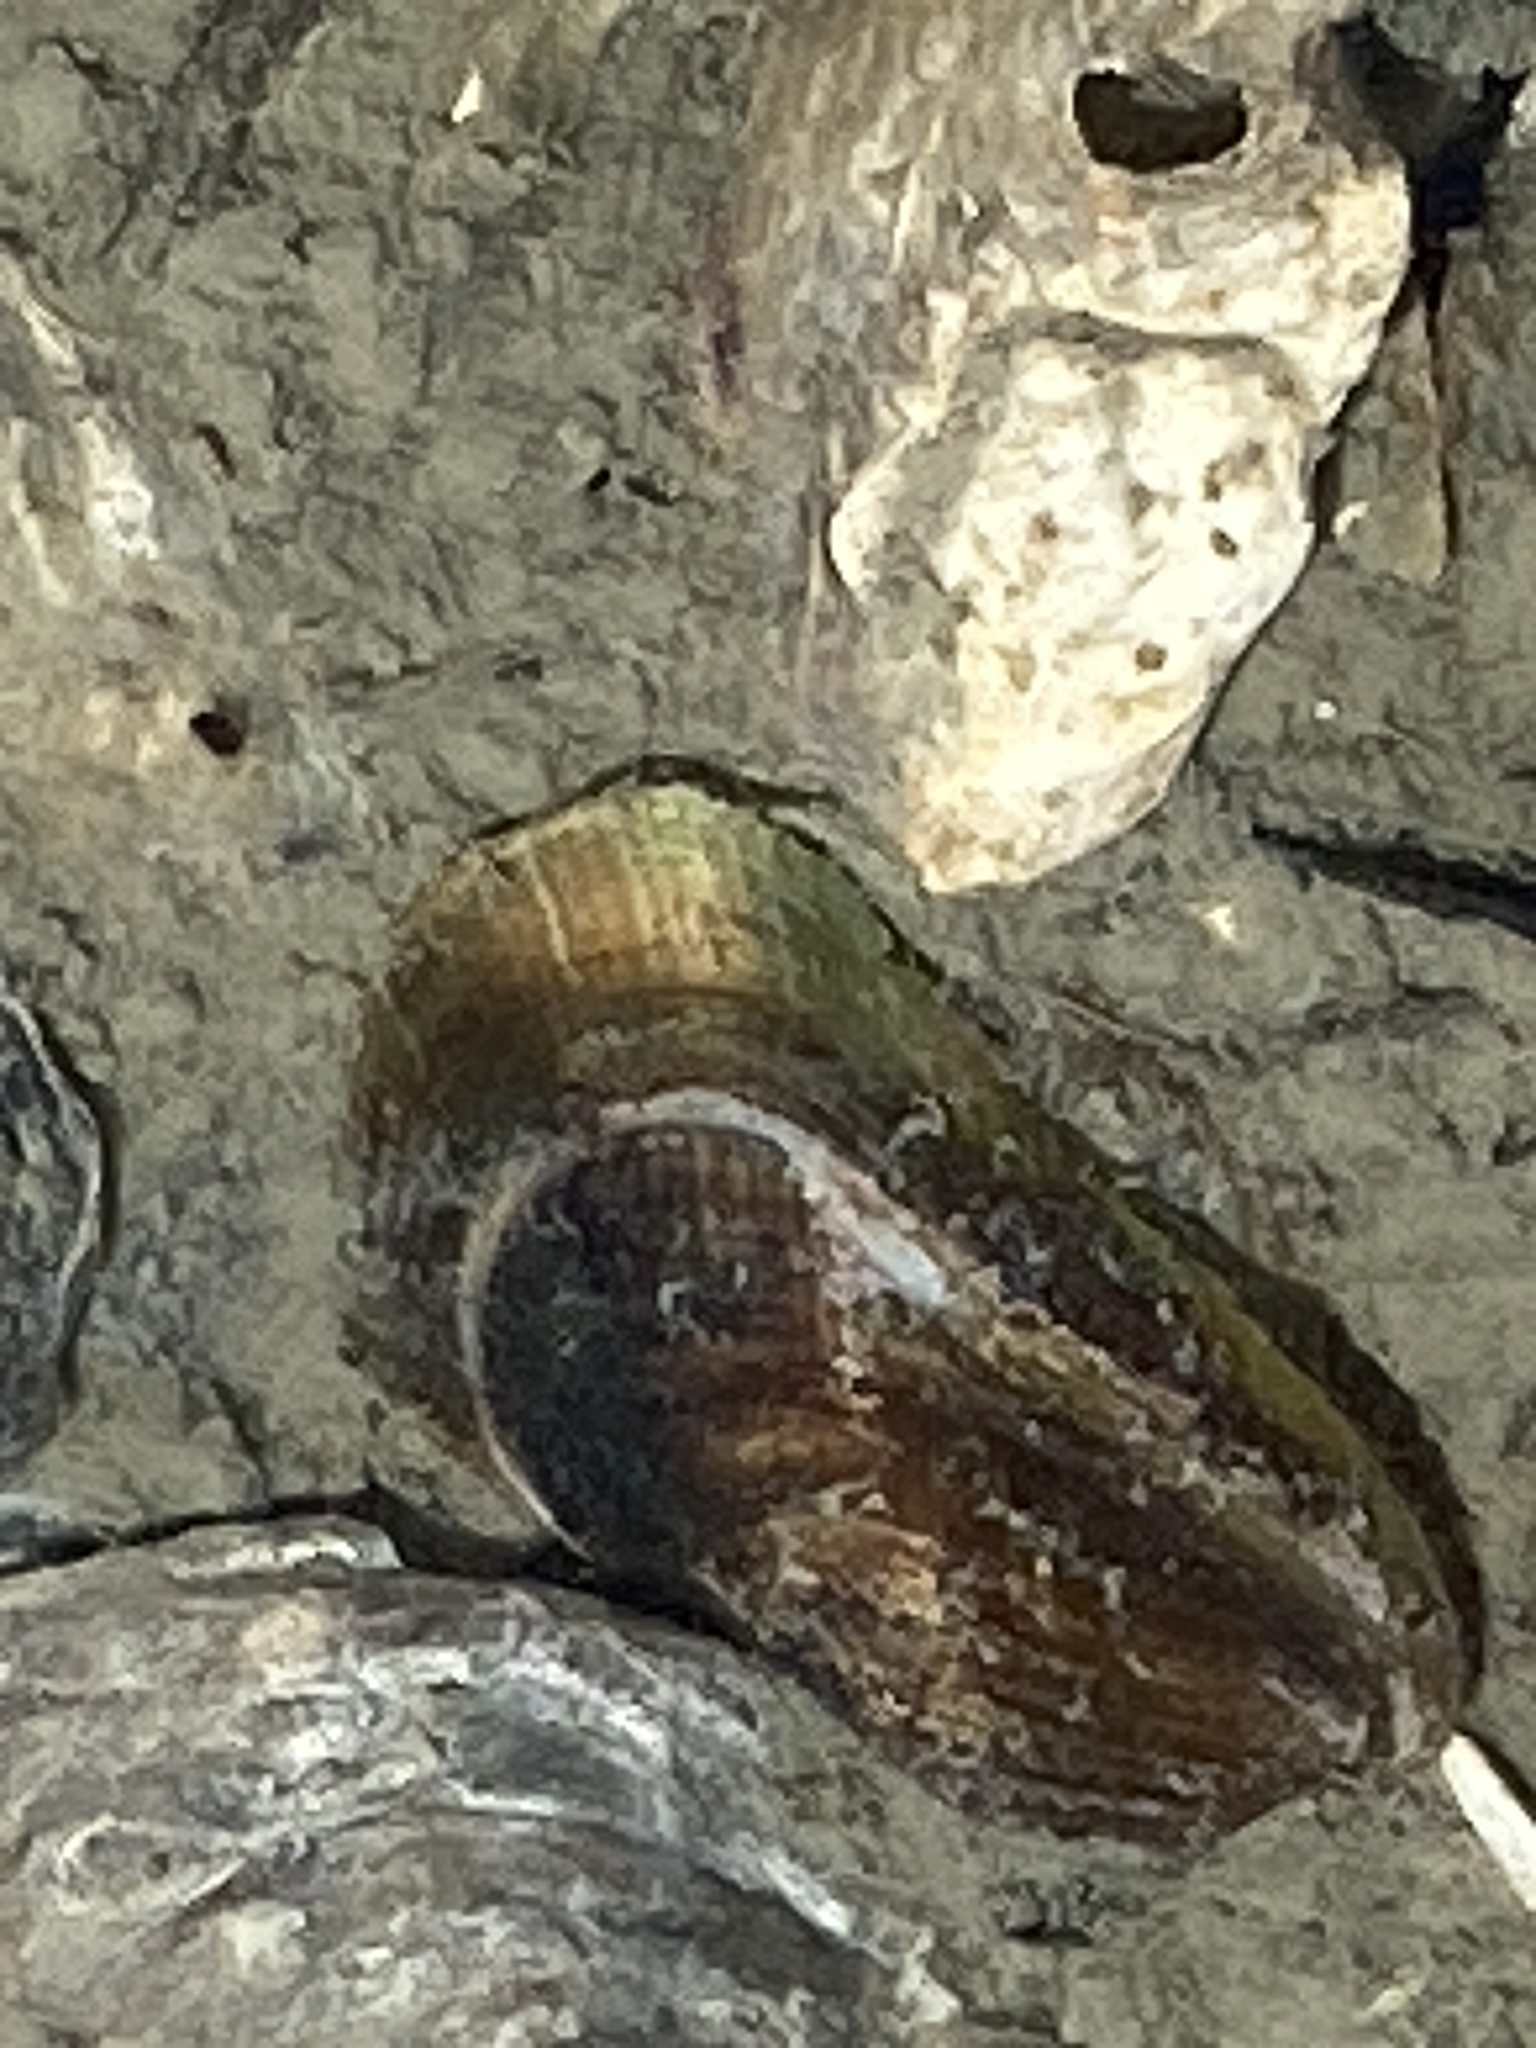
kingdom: Animalia
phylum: Mollusca
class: Bivalvia
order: Mytilida
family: Mytilidae
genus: Arcuatula
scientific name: Arcuatula senhousia
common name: Asian mussel
